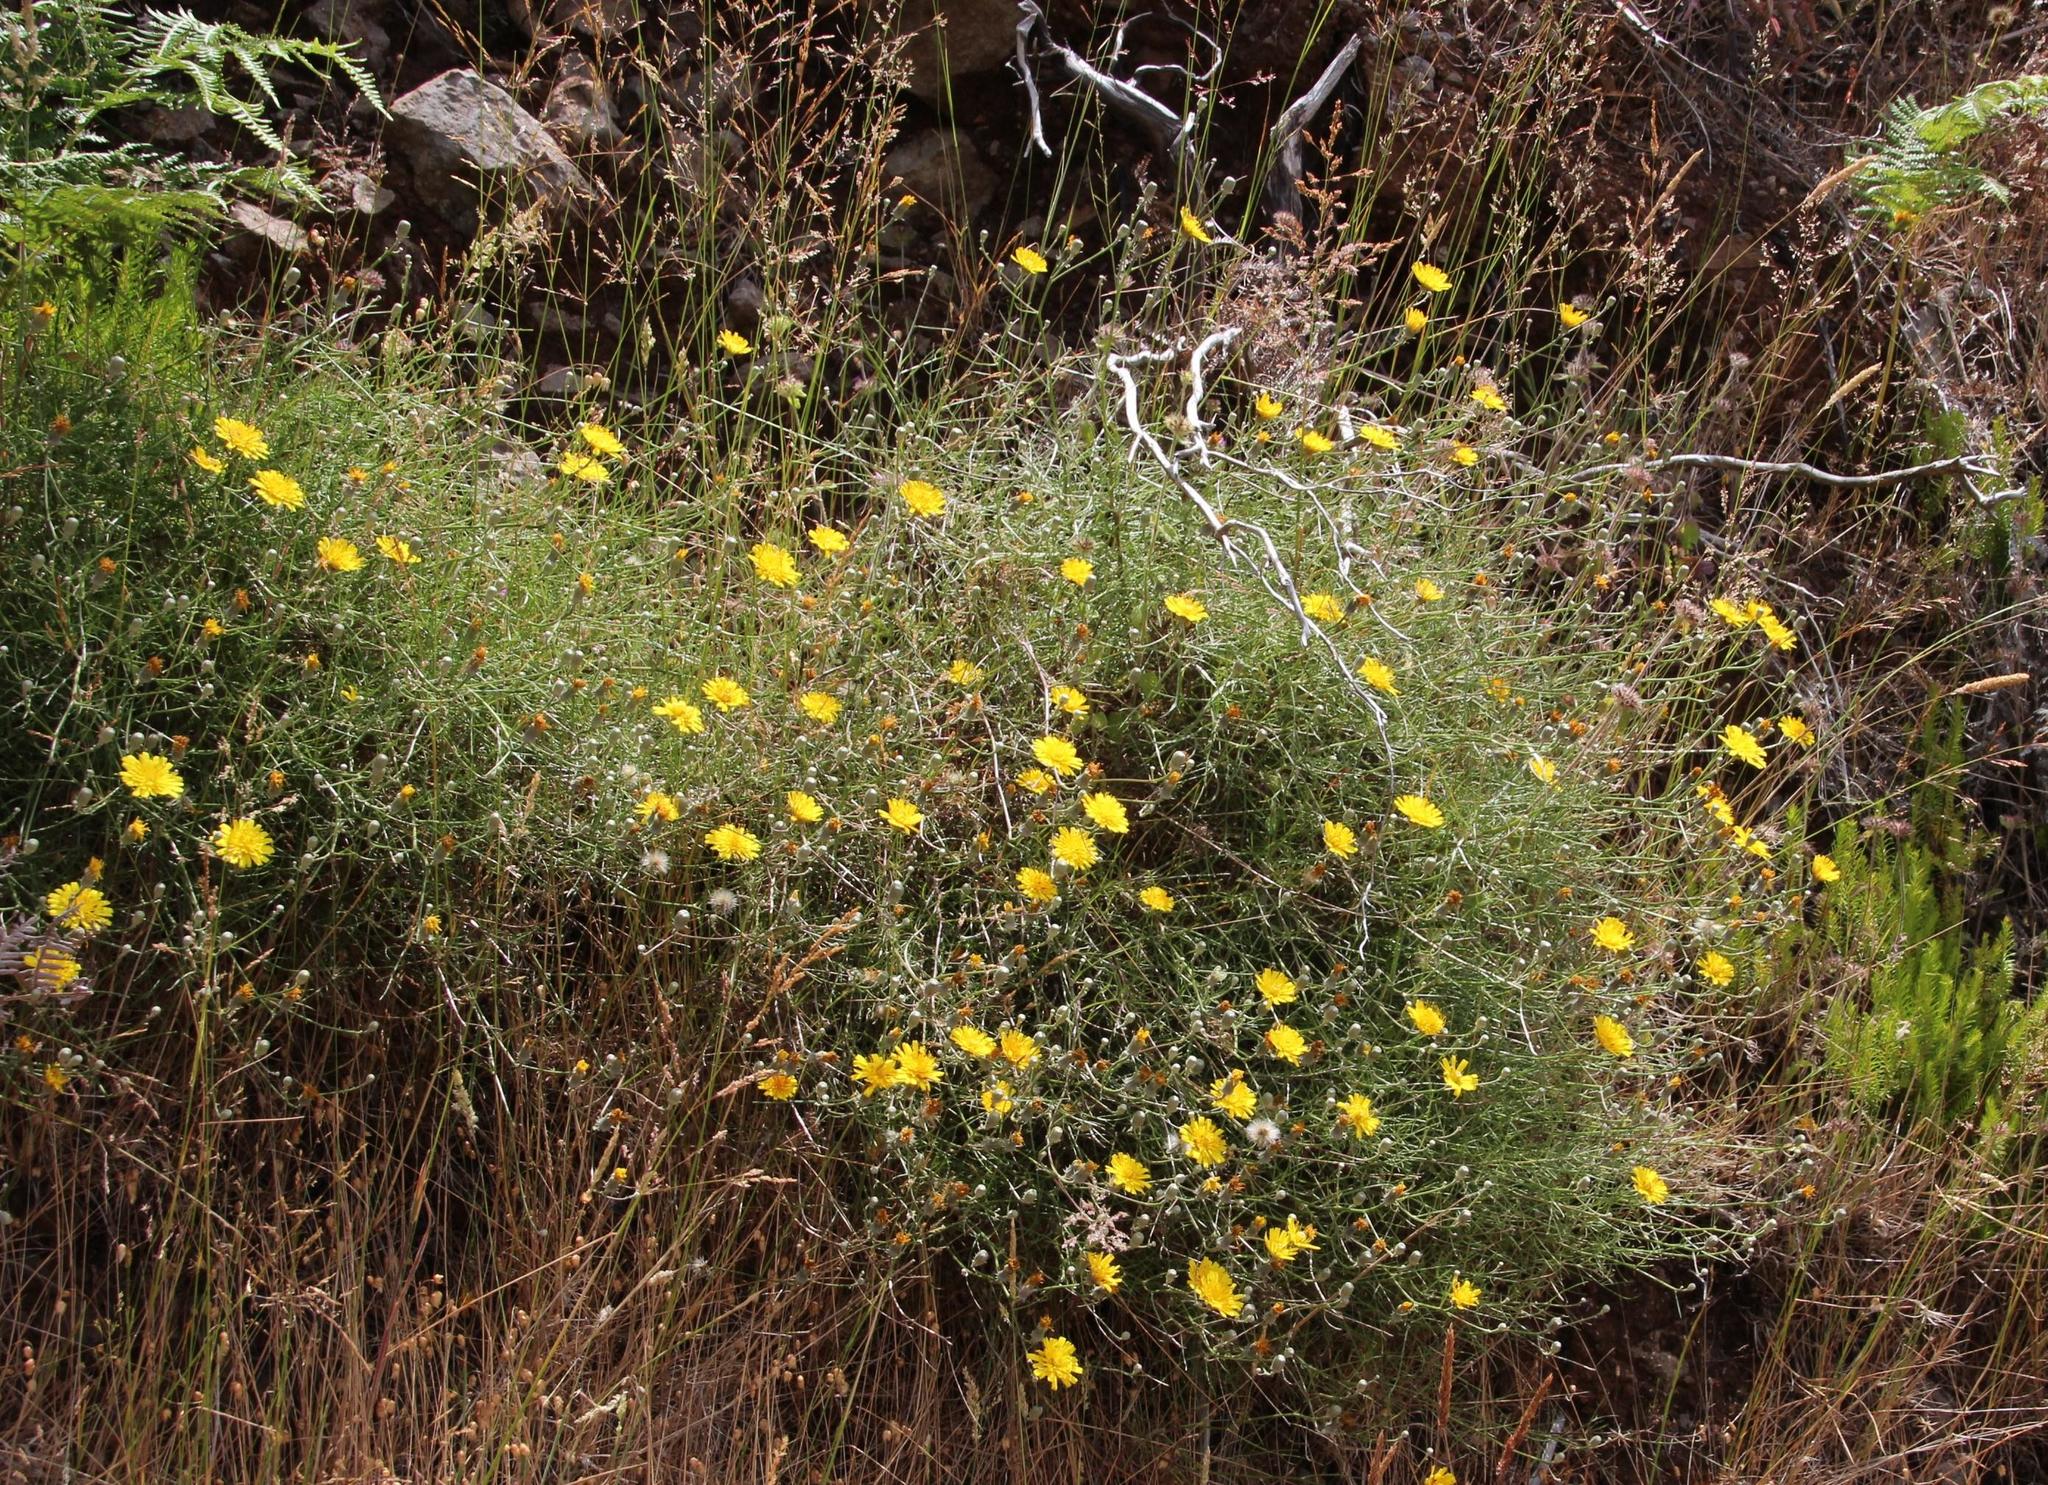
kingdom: Plantae
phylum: Tracheophyta
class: Magnoliopsida
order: Asterales
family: Asteraceae
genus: Tolpis
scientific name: Tolpis succulenta
